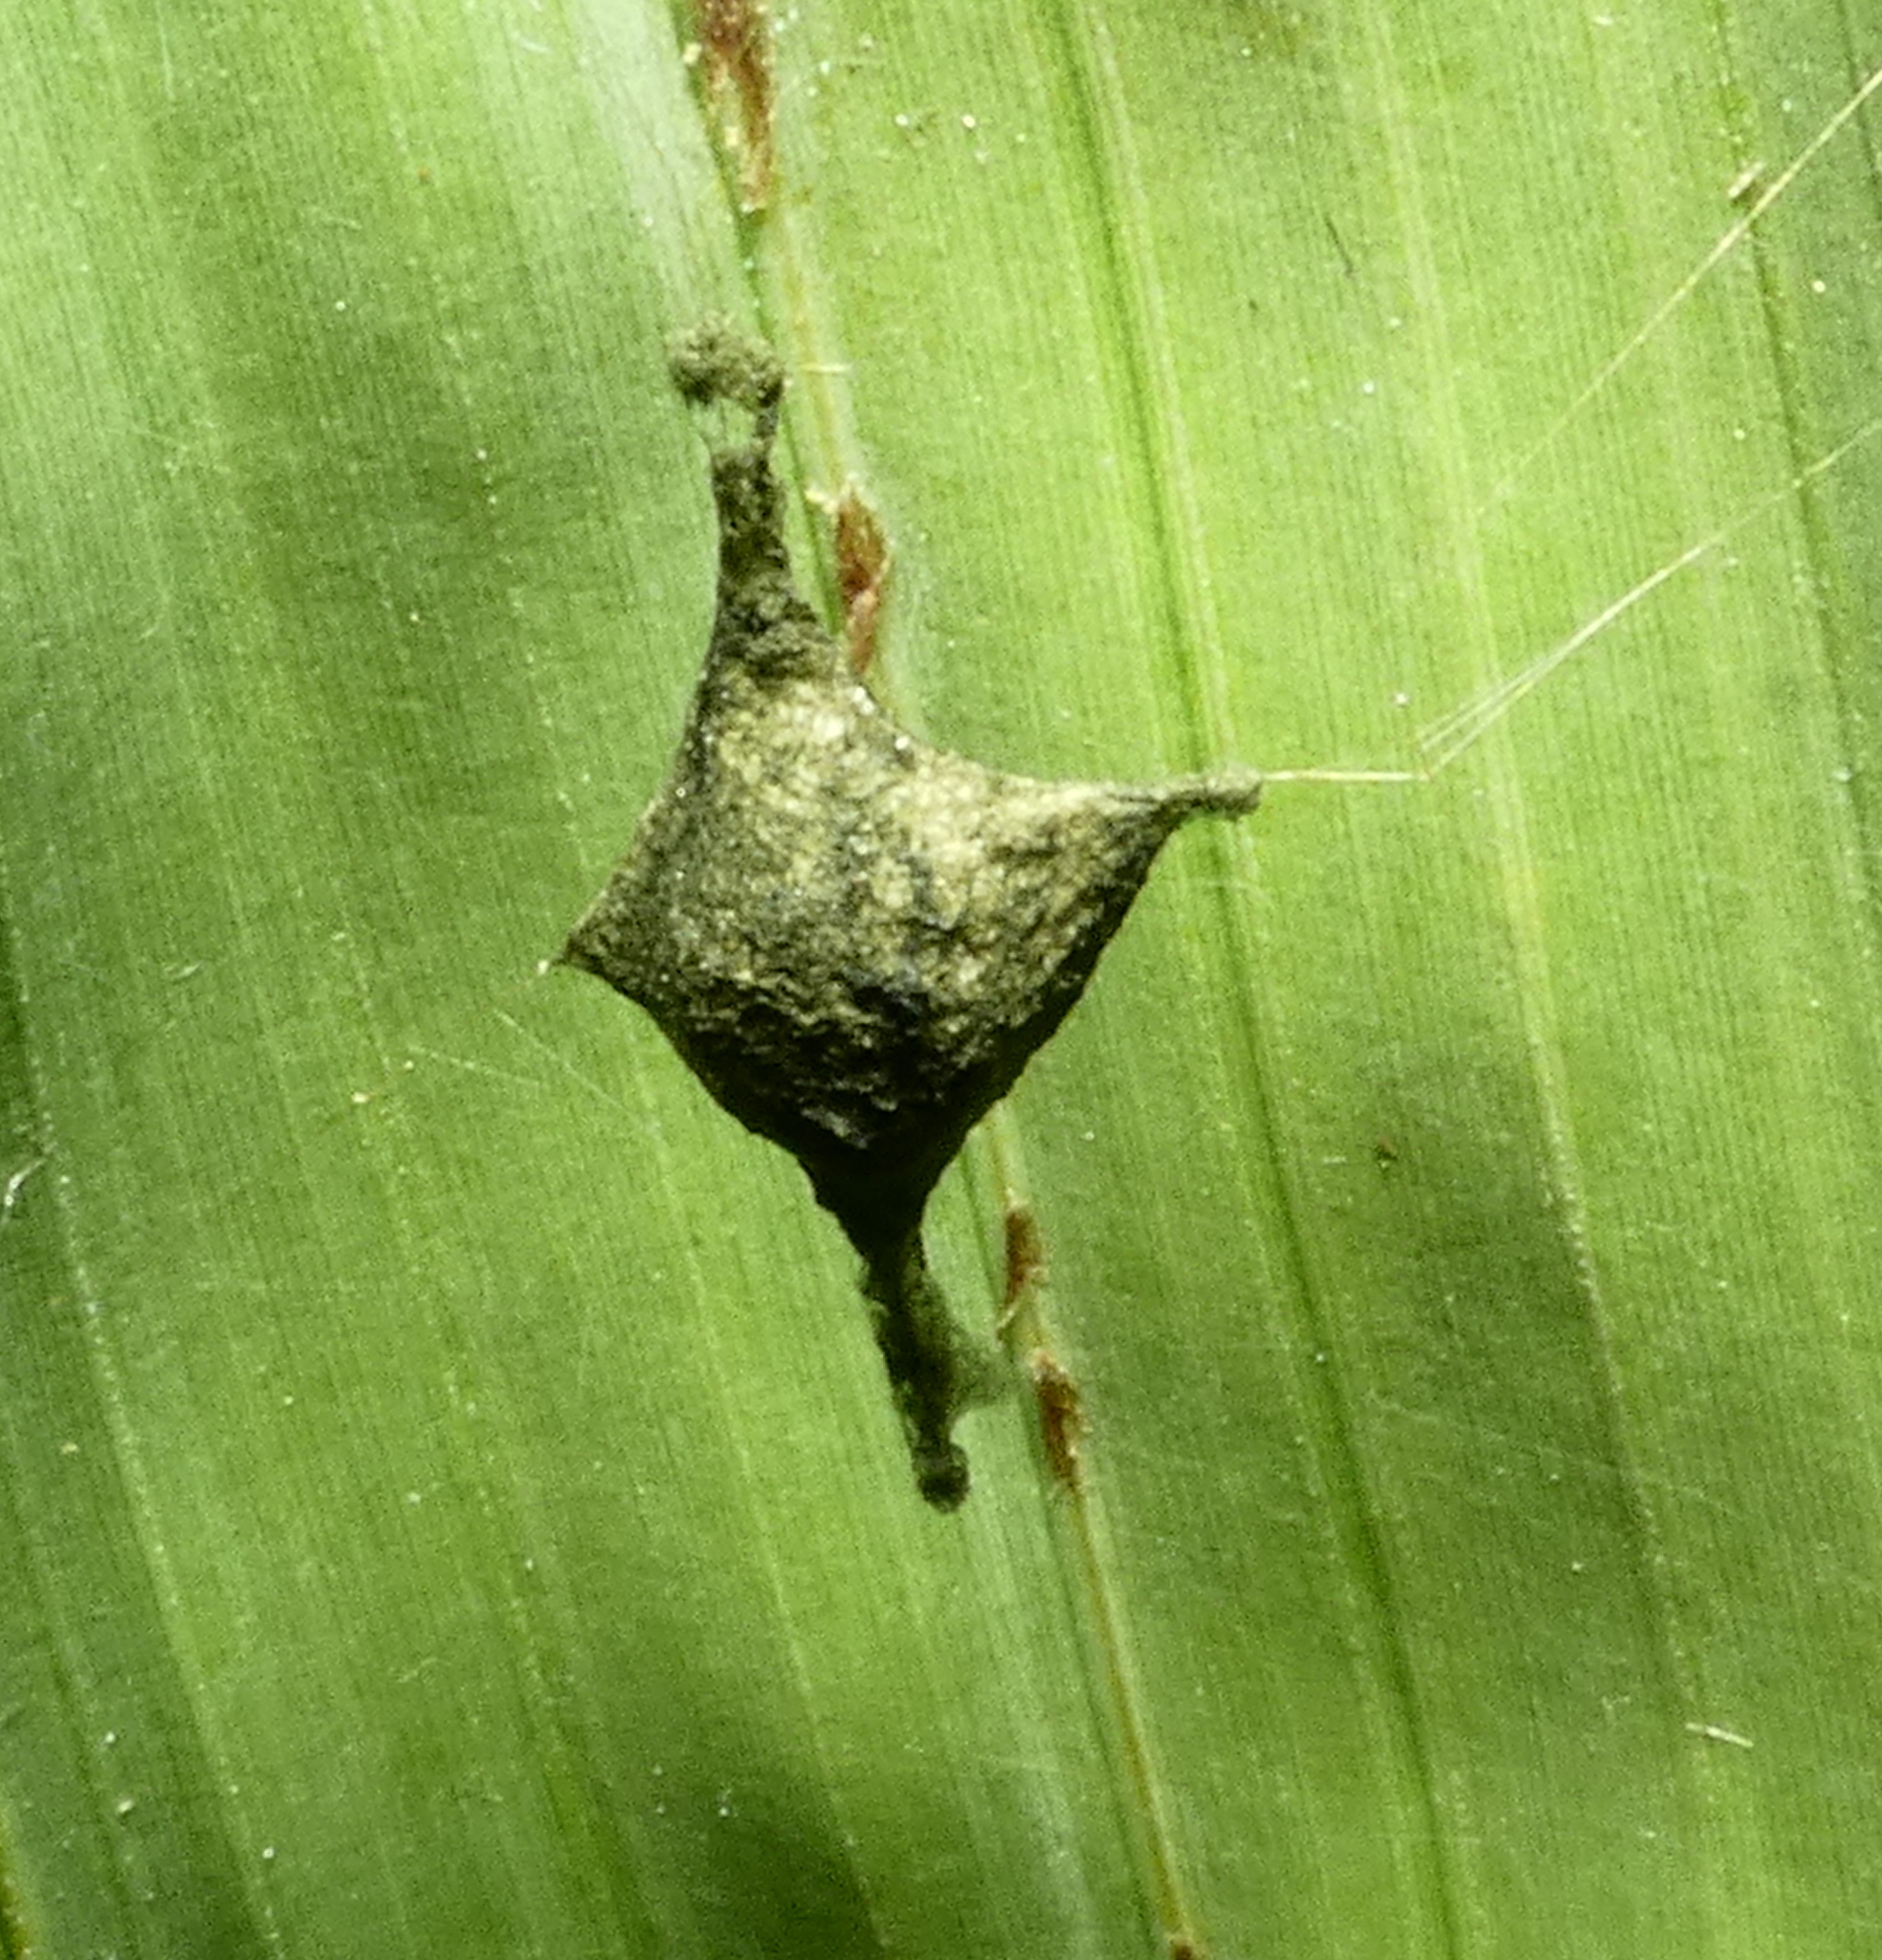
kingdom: Animalia
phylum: Arthropoda
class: Arachnida
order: Araneae
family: Araneidae
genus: Argiope
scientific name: Argiope argentata
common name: Orb weavers
